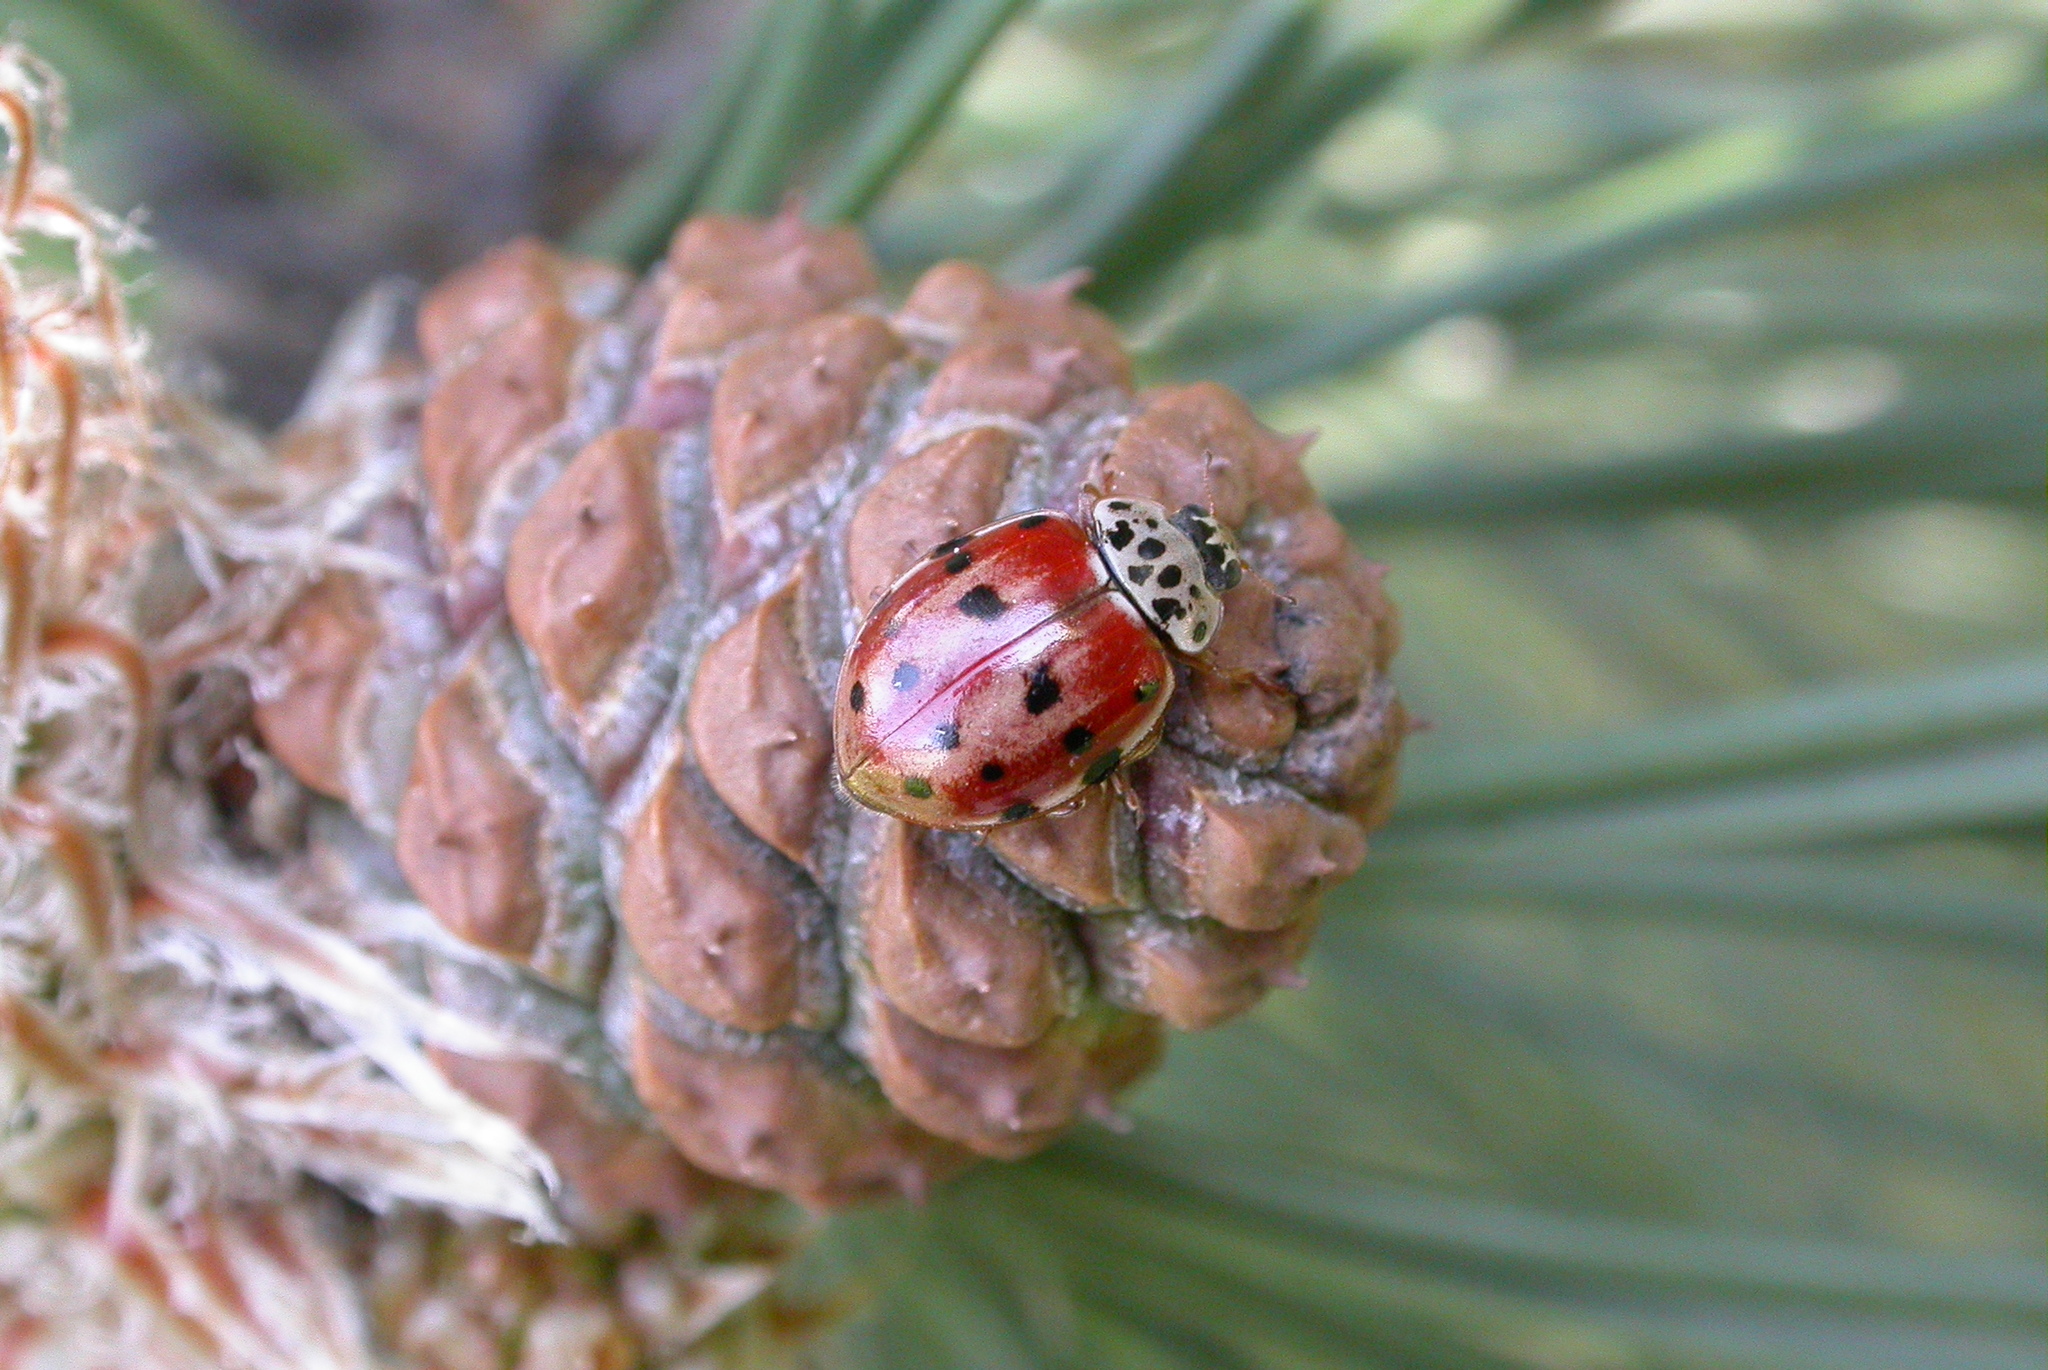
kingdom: Animalia
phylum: Arthropoda
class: Insecta
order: Coleoptera
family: Coccinellidae
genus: Harmonia
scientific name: Harmonia quadripunctata
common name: Cream-streaked ladybird
